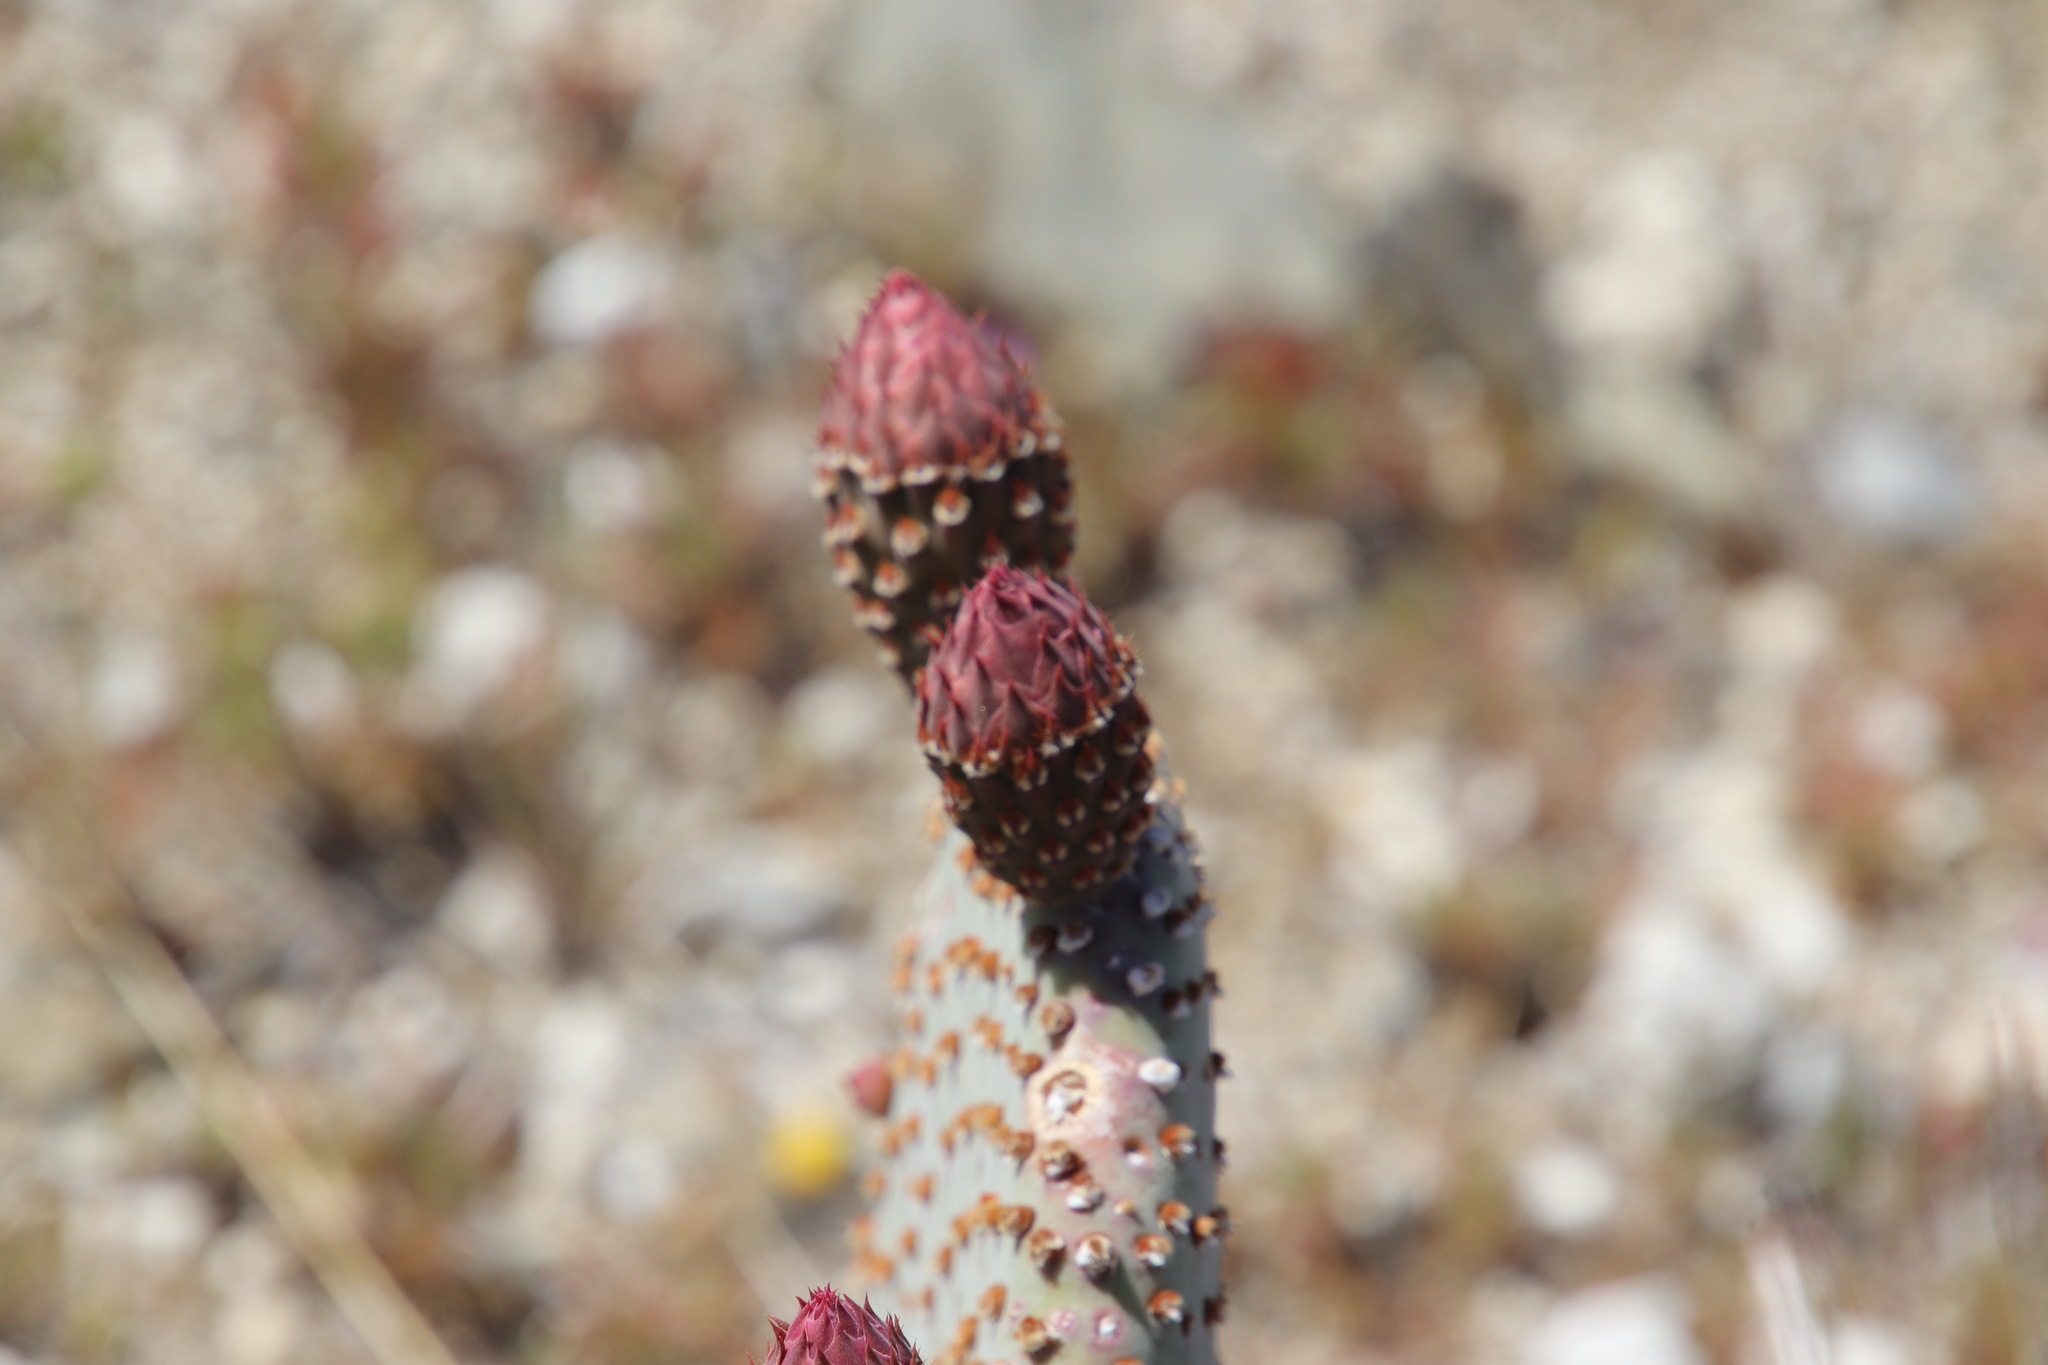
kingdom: Plantae
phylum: Tracheophyta
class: Magnoliopsida
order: Caryophyllales
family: Cactaceae
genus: Opuntia
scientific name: Opuntia basilaris
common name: Beavertail prickly-pear
